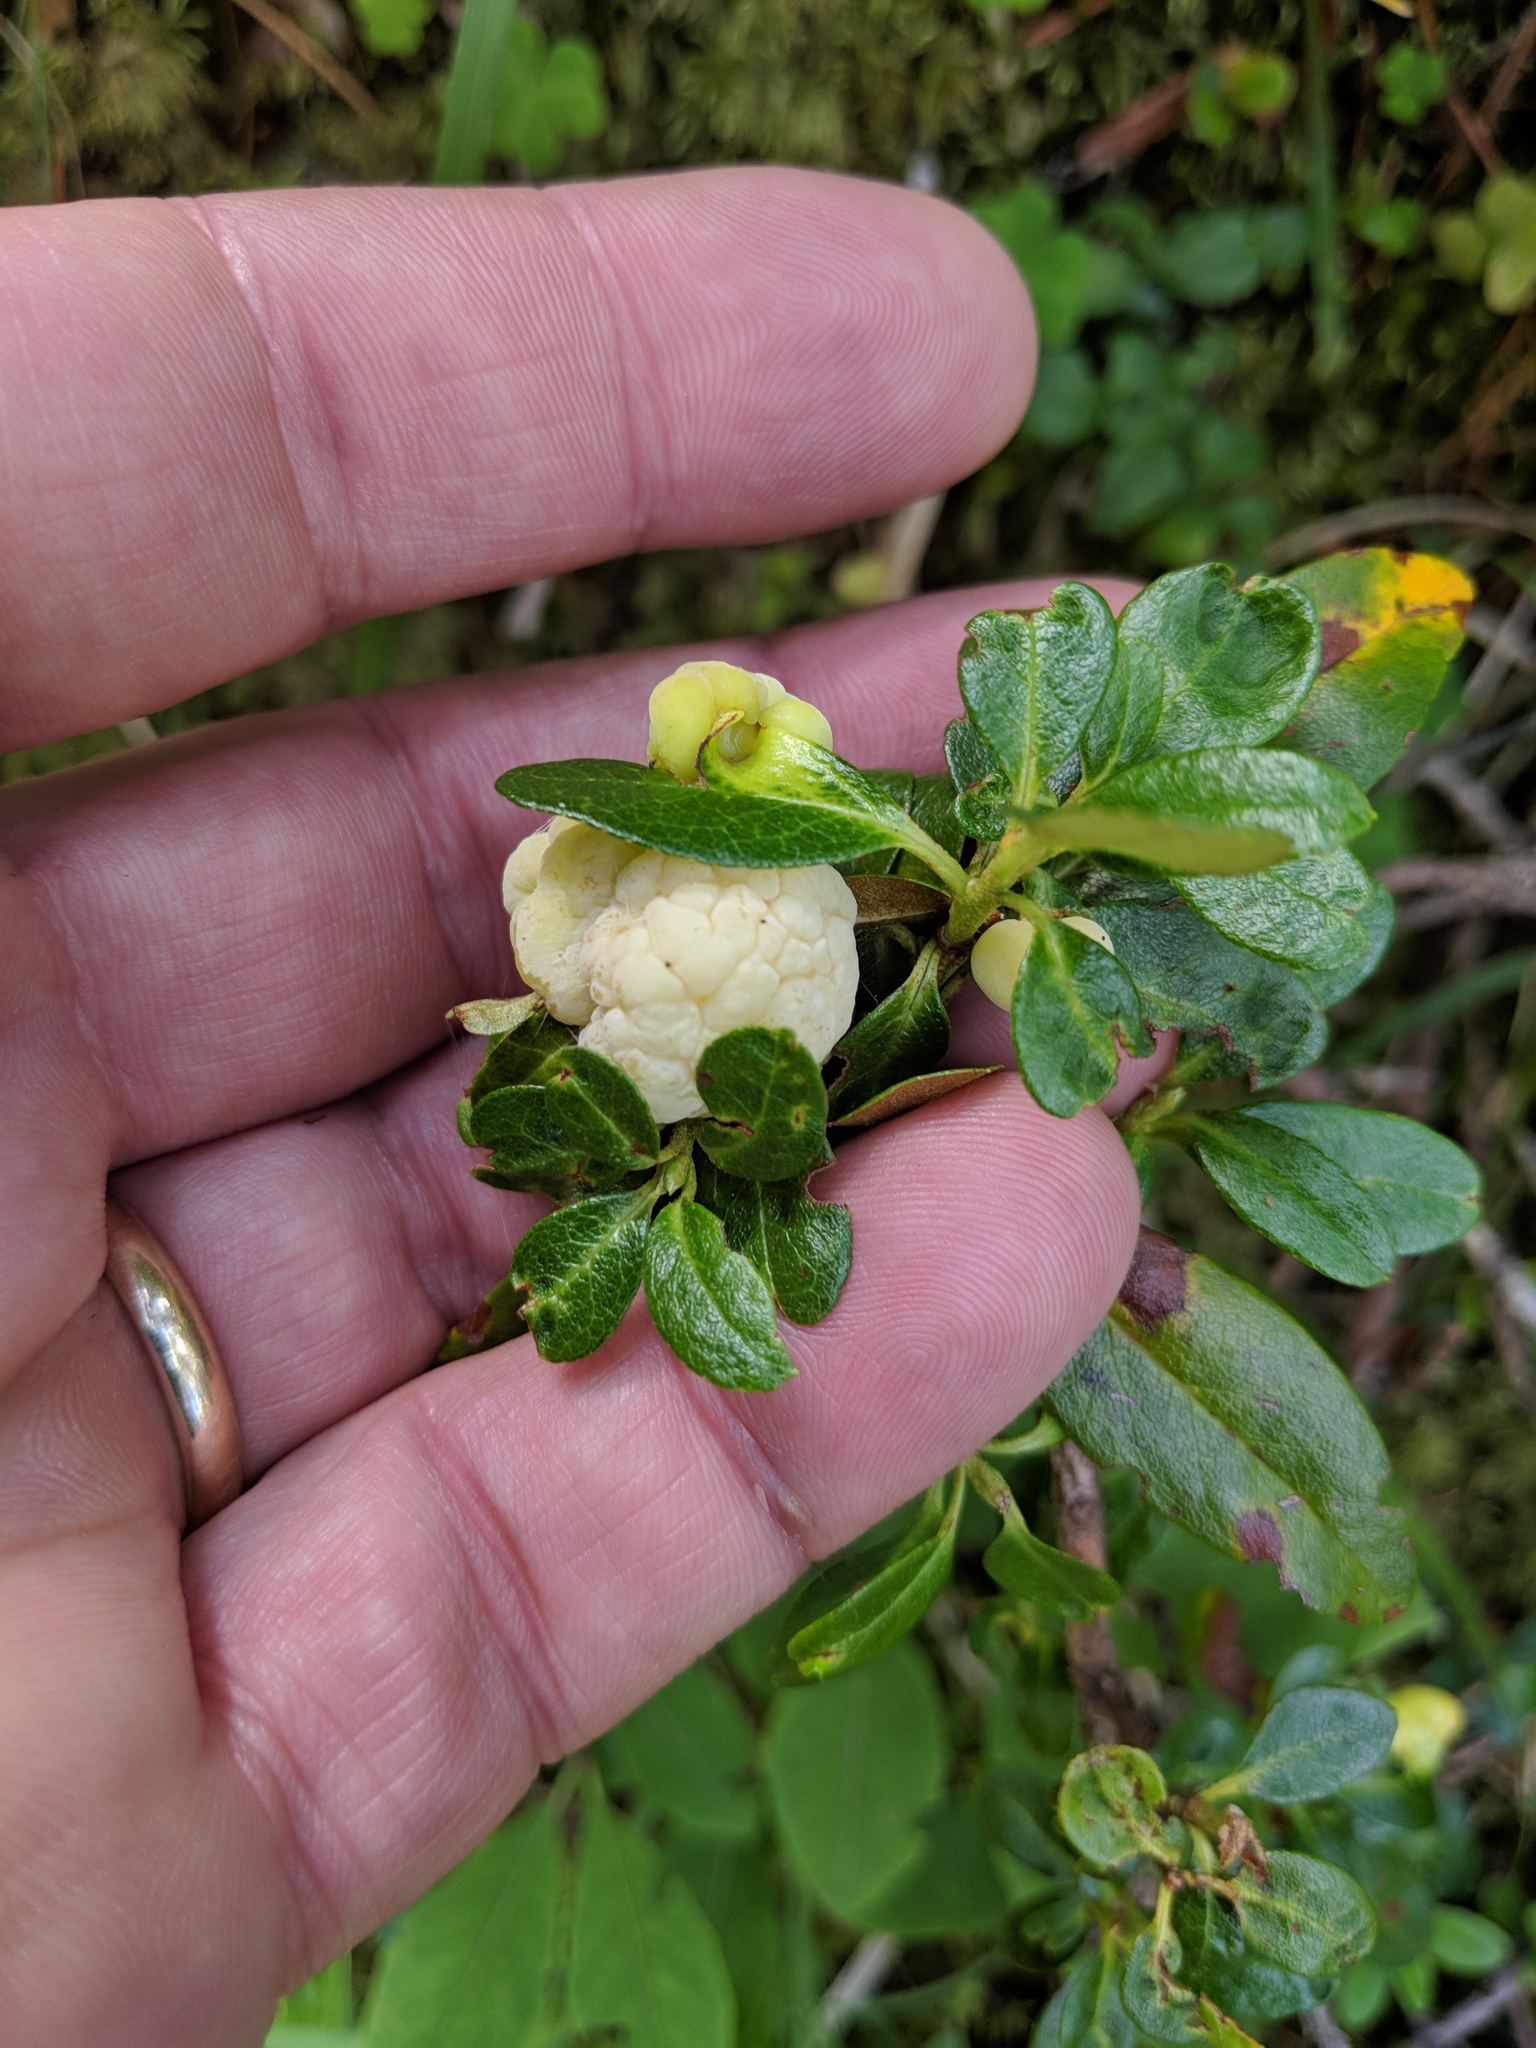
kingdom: Fungi
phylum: Basidiomycota
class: Exobasidiomycetes
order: Exobasidiales
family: Exobasidiaceae
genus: Exobasidium
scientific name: Exobasidium rhododendri
